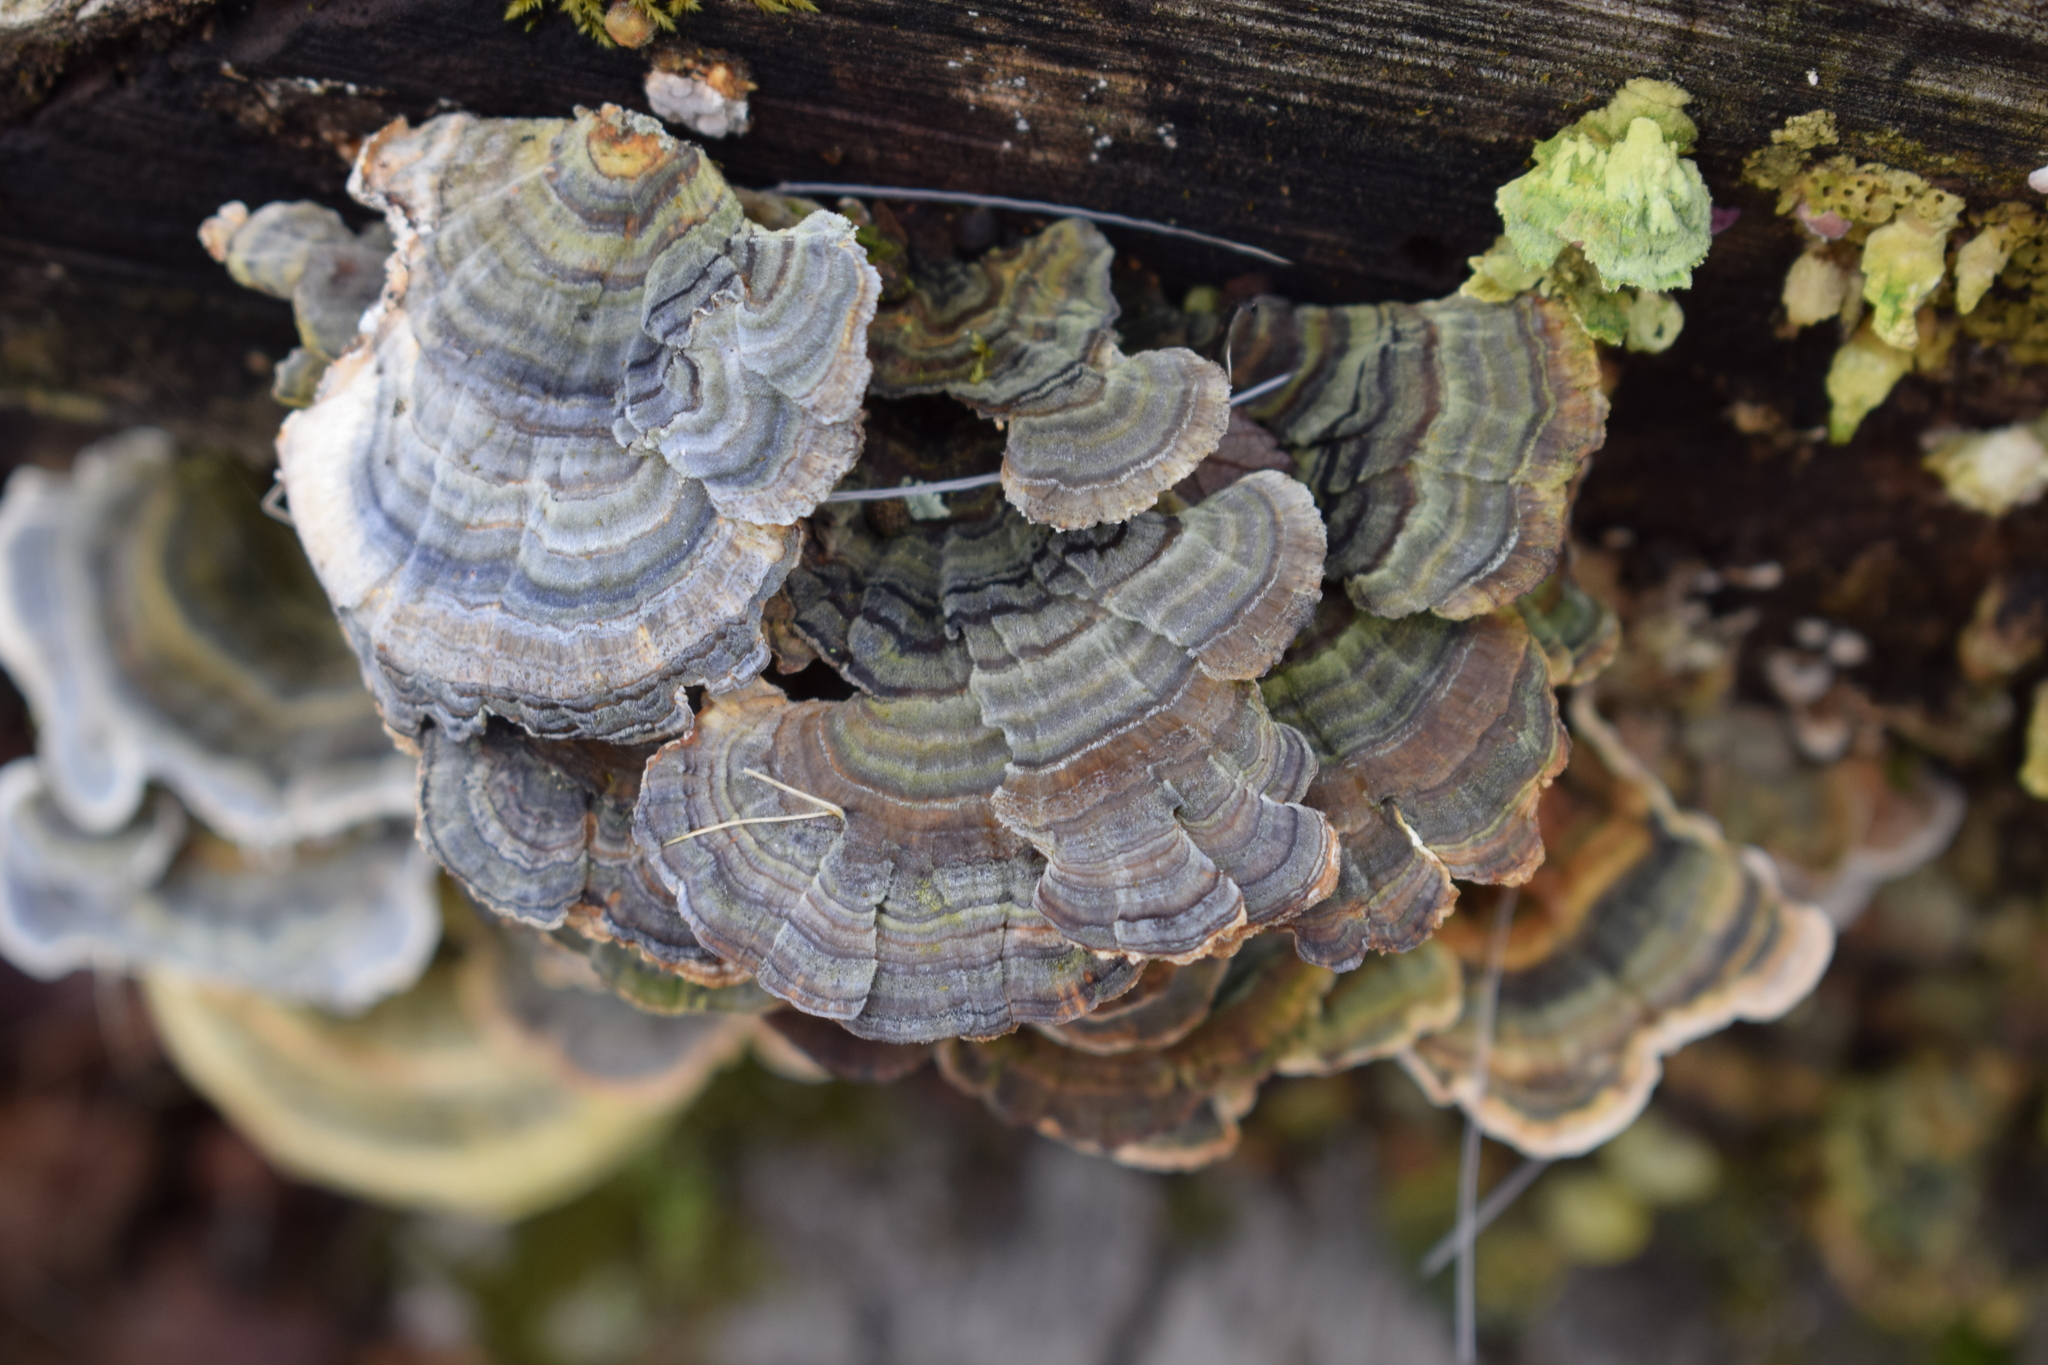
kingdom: Fungi
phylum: Basidiomycota
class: Agaricomycetes
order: Polyporales
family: Polyporaceae
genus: Trametes
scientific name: Trametes versicolor
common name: Turkeytail
